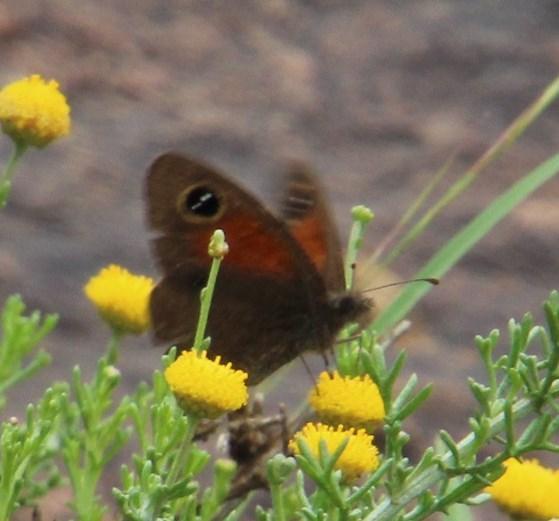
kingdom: Animalia
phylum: Arthropoda
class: Insecta
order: Lepidoptera
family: Nymphalidae
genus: Stygionympha
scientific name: Stygionympha vigilans
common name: Western hillside brown
